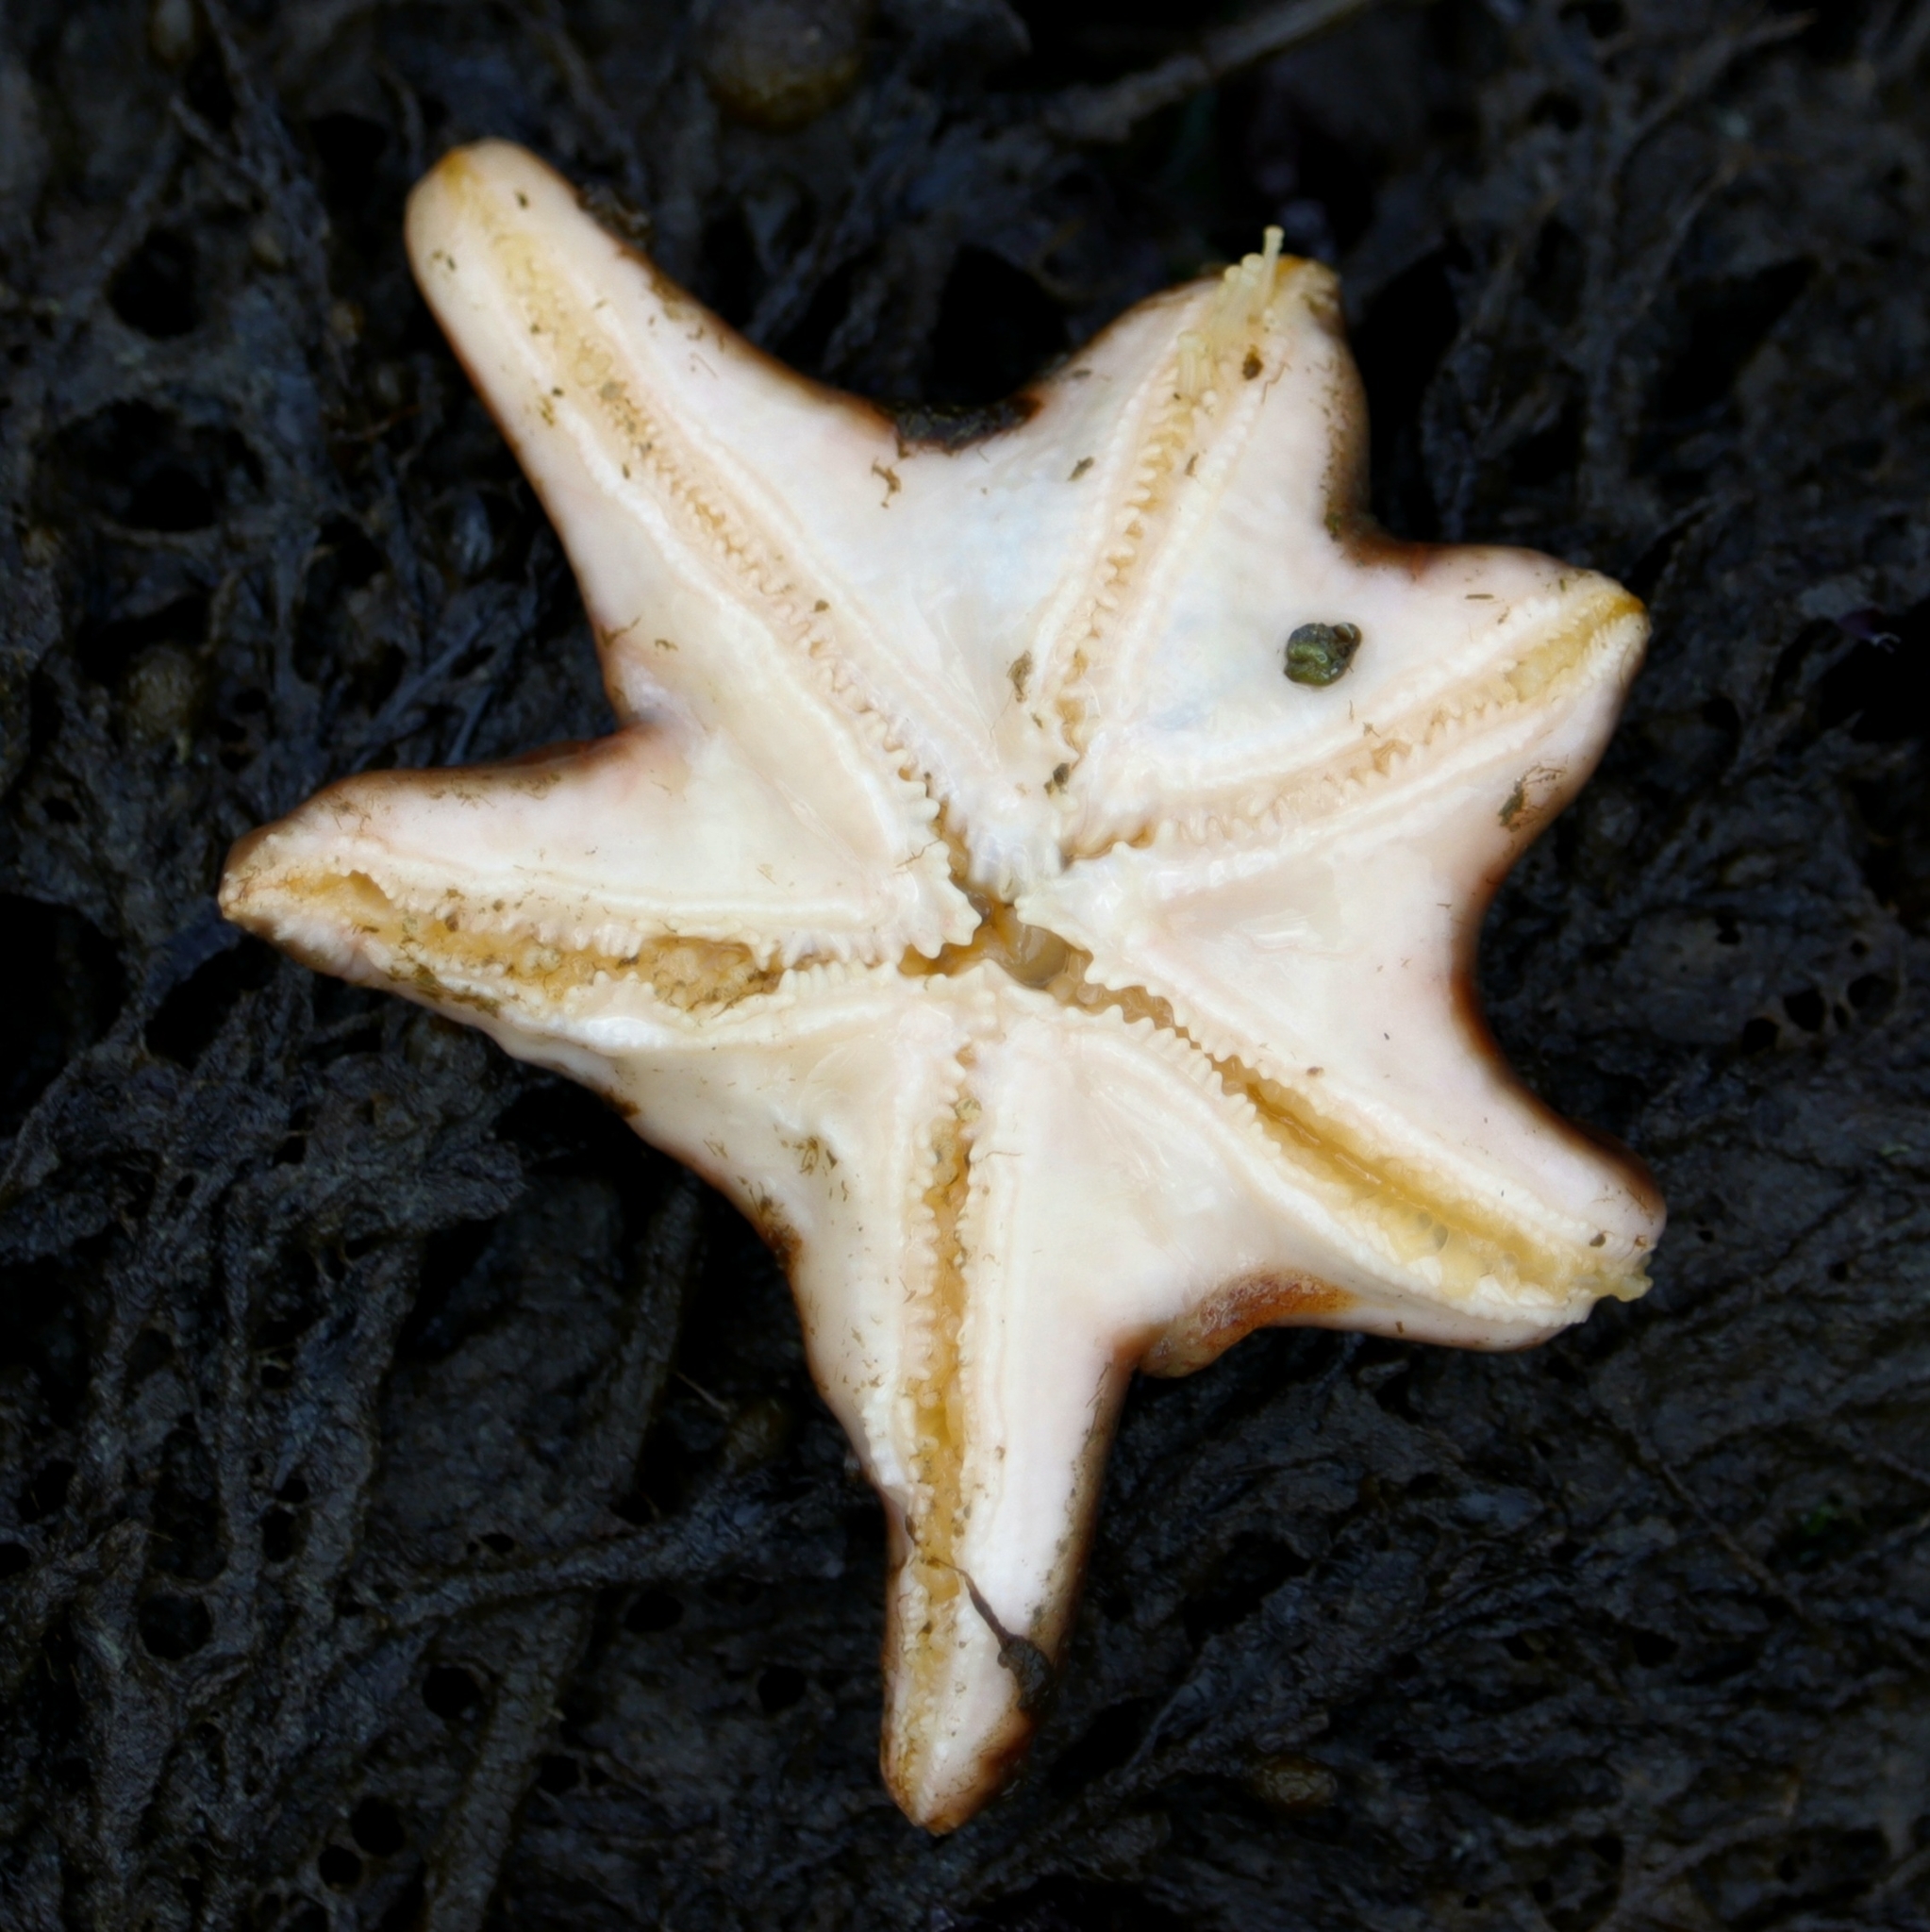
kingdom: Animalia
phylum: Echinodermata
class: Asteroidea
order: Valvatida
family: Asteropseidae
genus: Dermasterias
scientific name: Dermasterias imbricata
